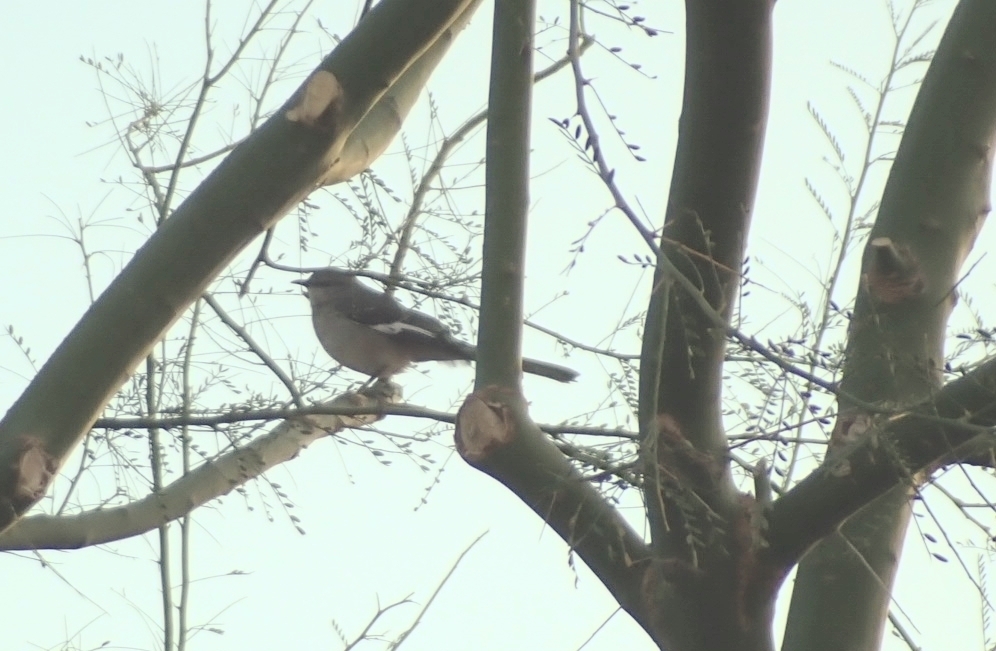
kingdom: Animalia
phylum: Chordata
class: Aves
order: Passeriformes
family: Mimidae
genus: Mimus
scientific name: Mimus polyglottos
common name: Northern mockingbird
